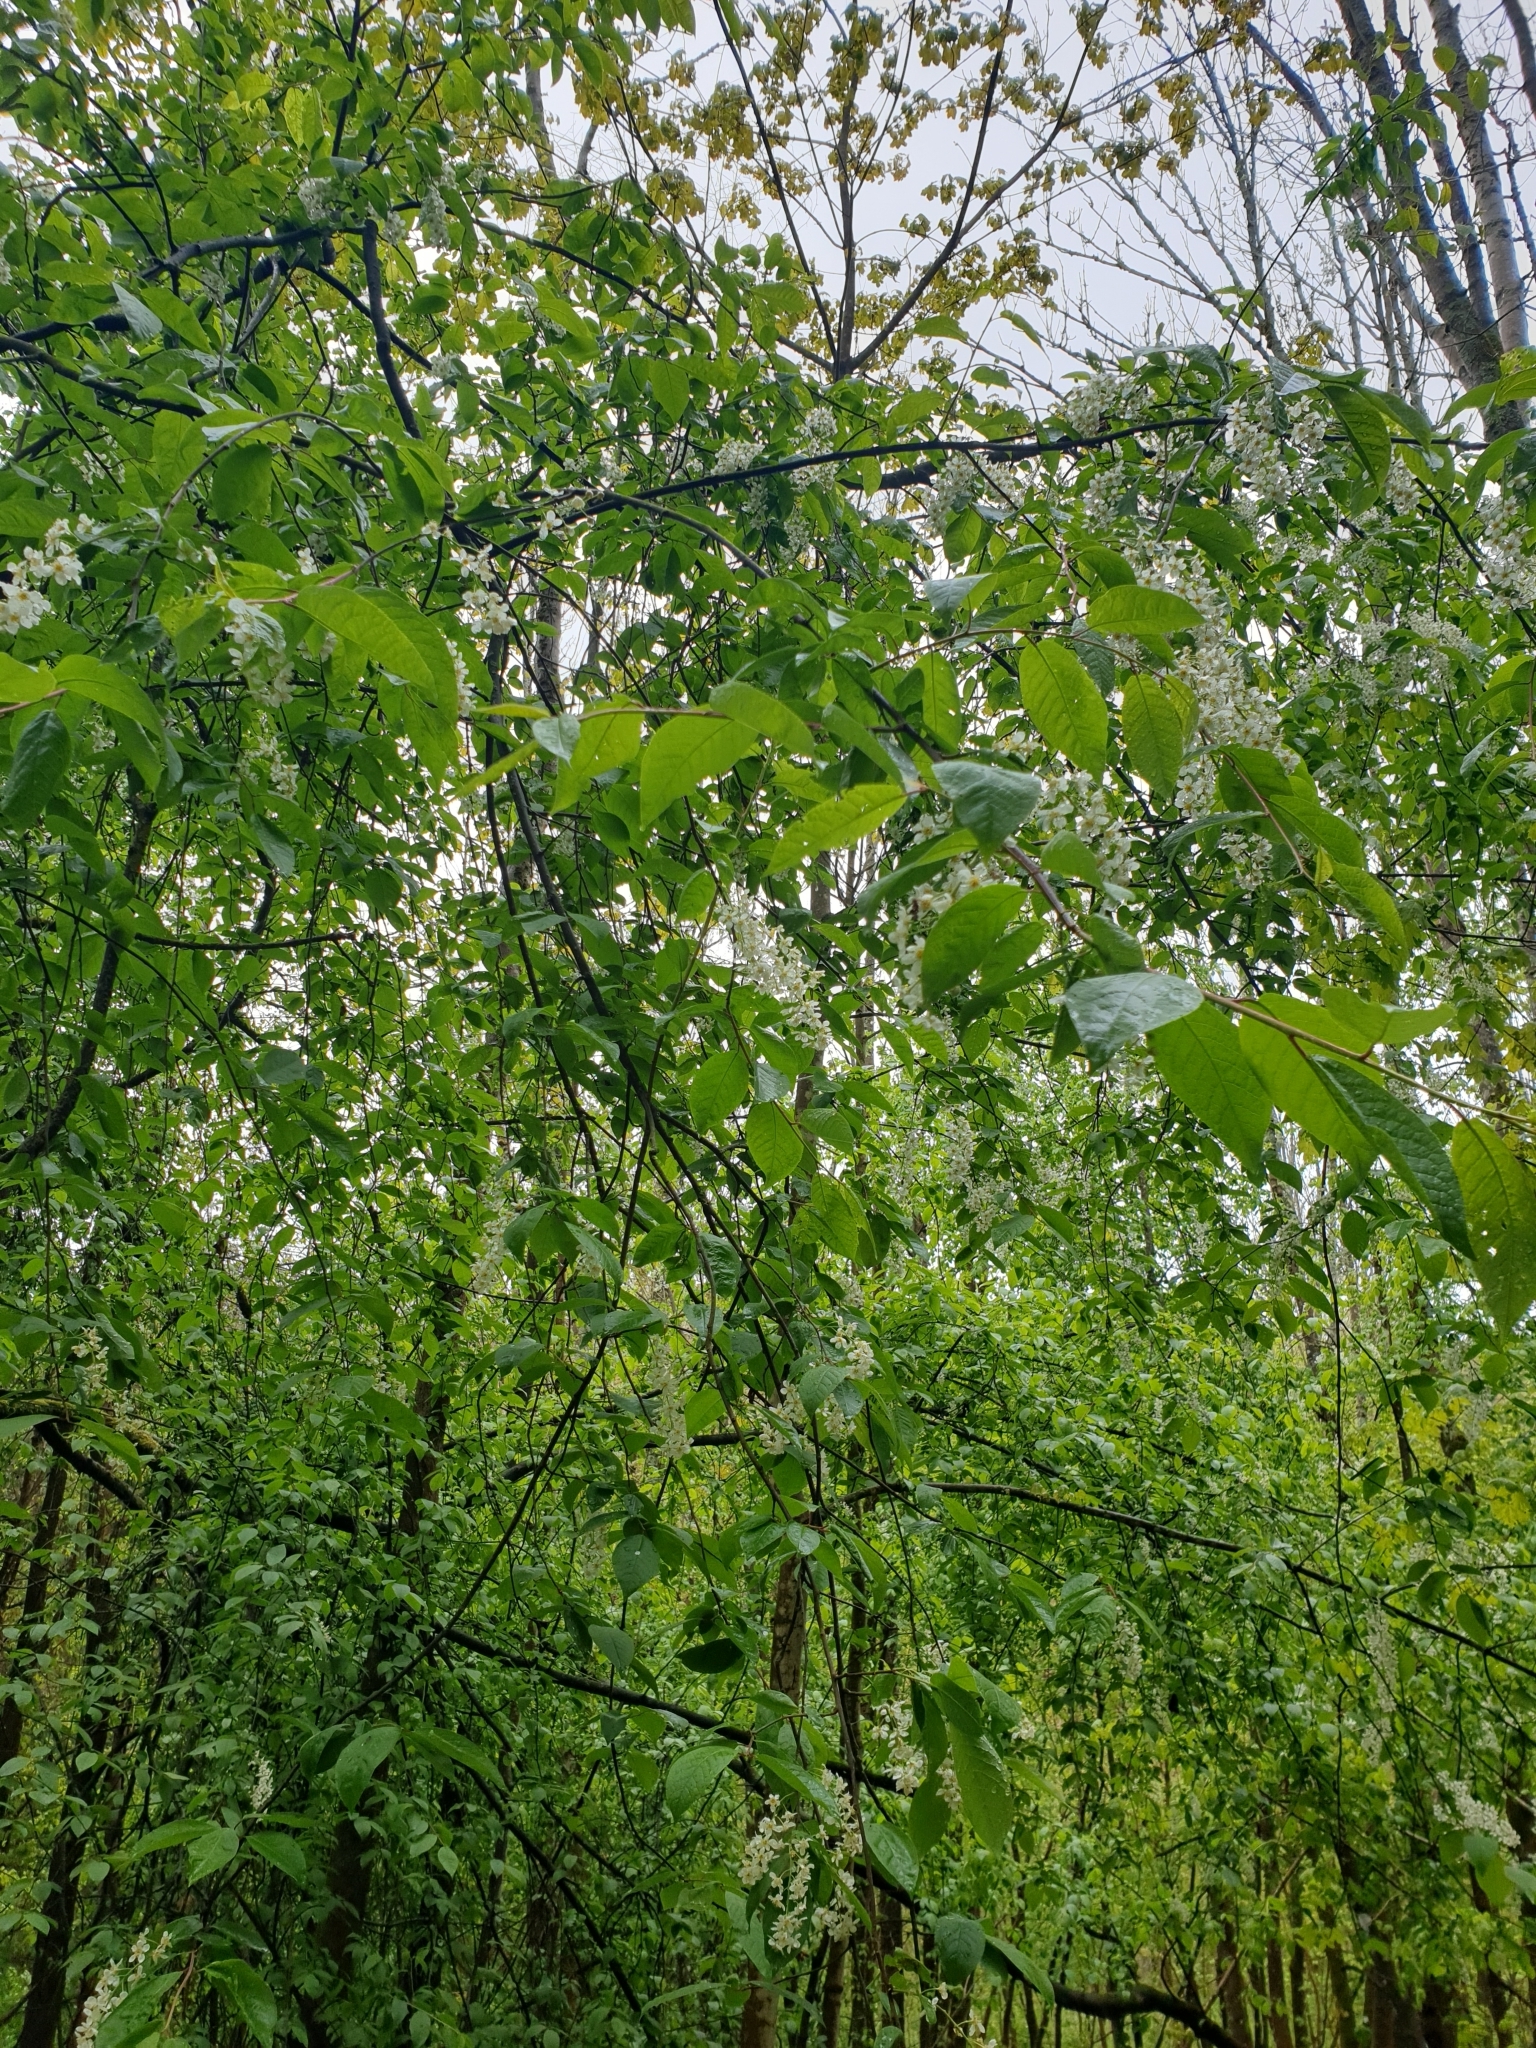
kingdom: Plantae
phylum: Tracheophyta
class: Magnoliopsida
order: Rosales
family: Rosaceae
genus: Prunus
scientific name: Prunus padus
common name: Bird cherry
